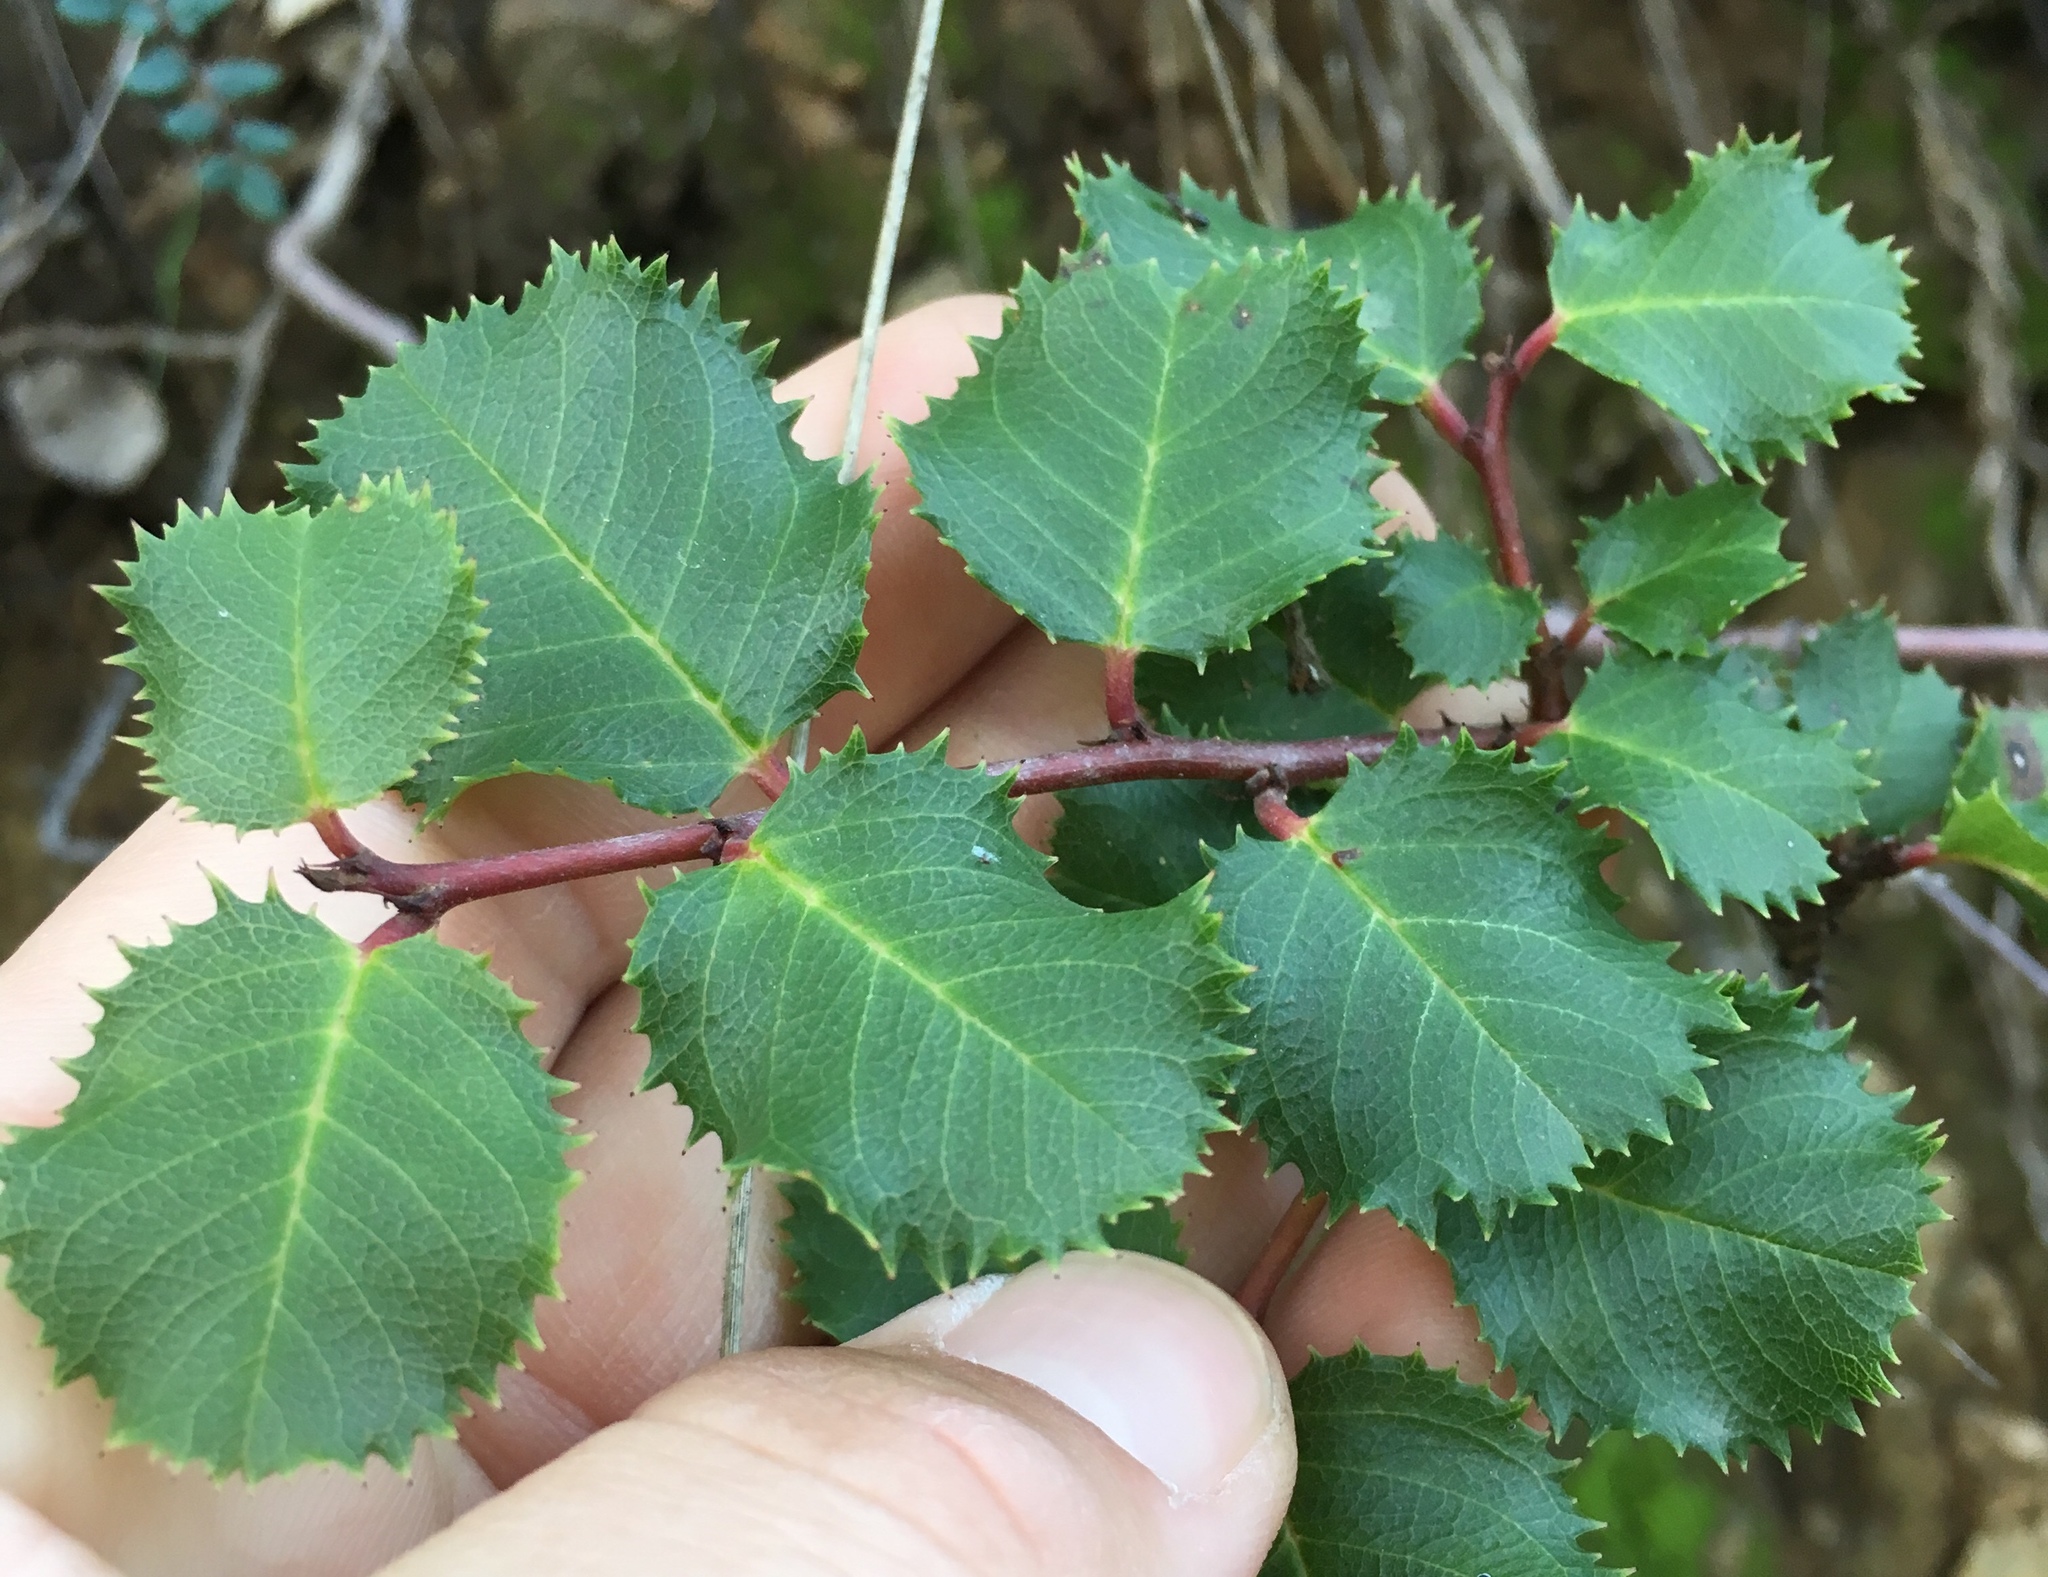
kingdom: Plantae
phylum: Tracheophyta
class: Magnoliopsida
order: Rosales
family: Rhamnaceae
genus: Endotropis
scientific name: Endotropis crocea
